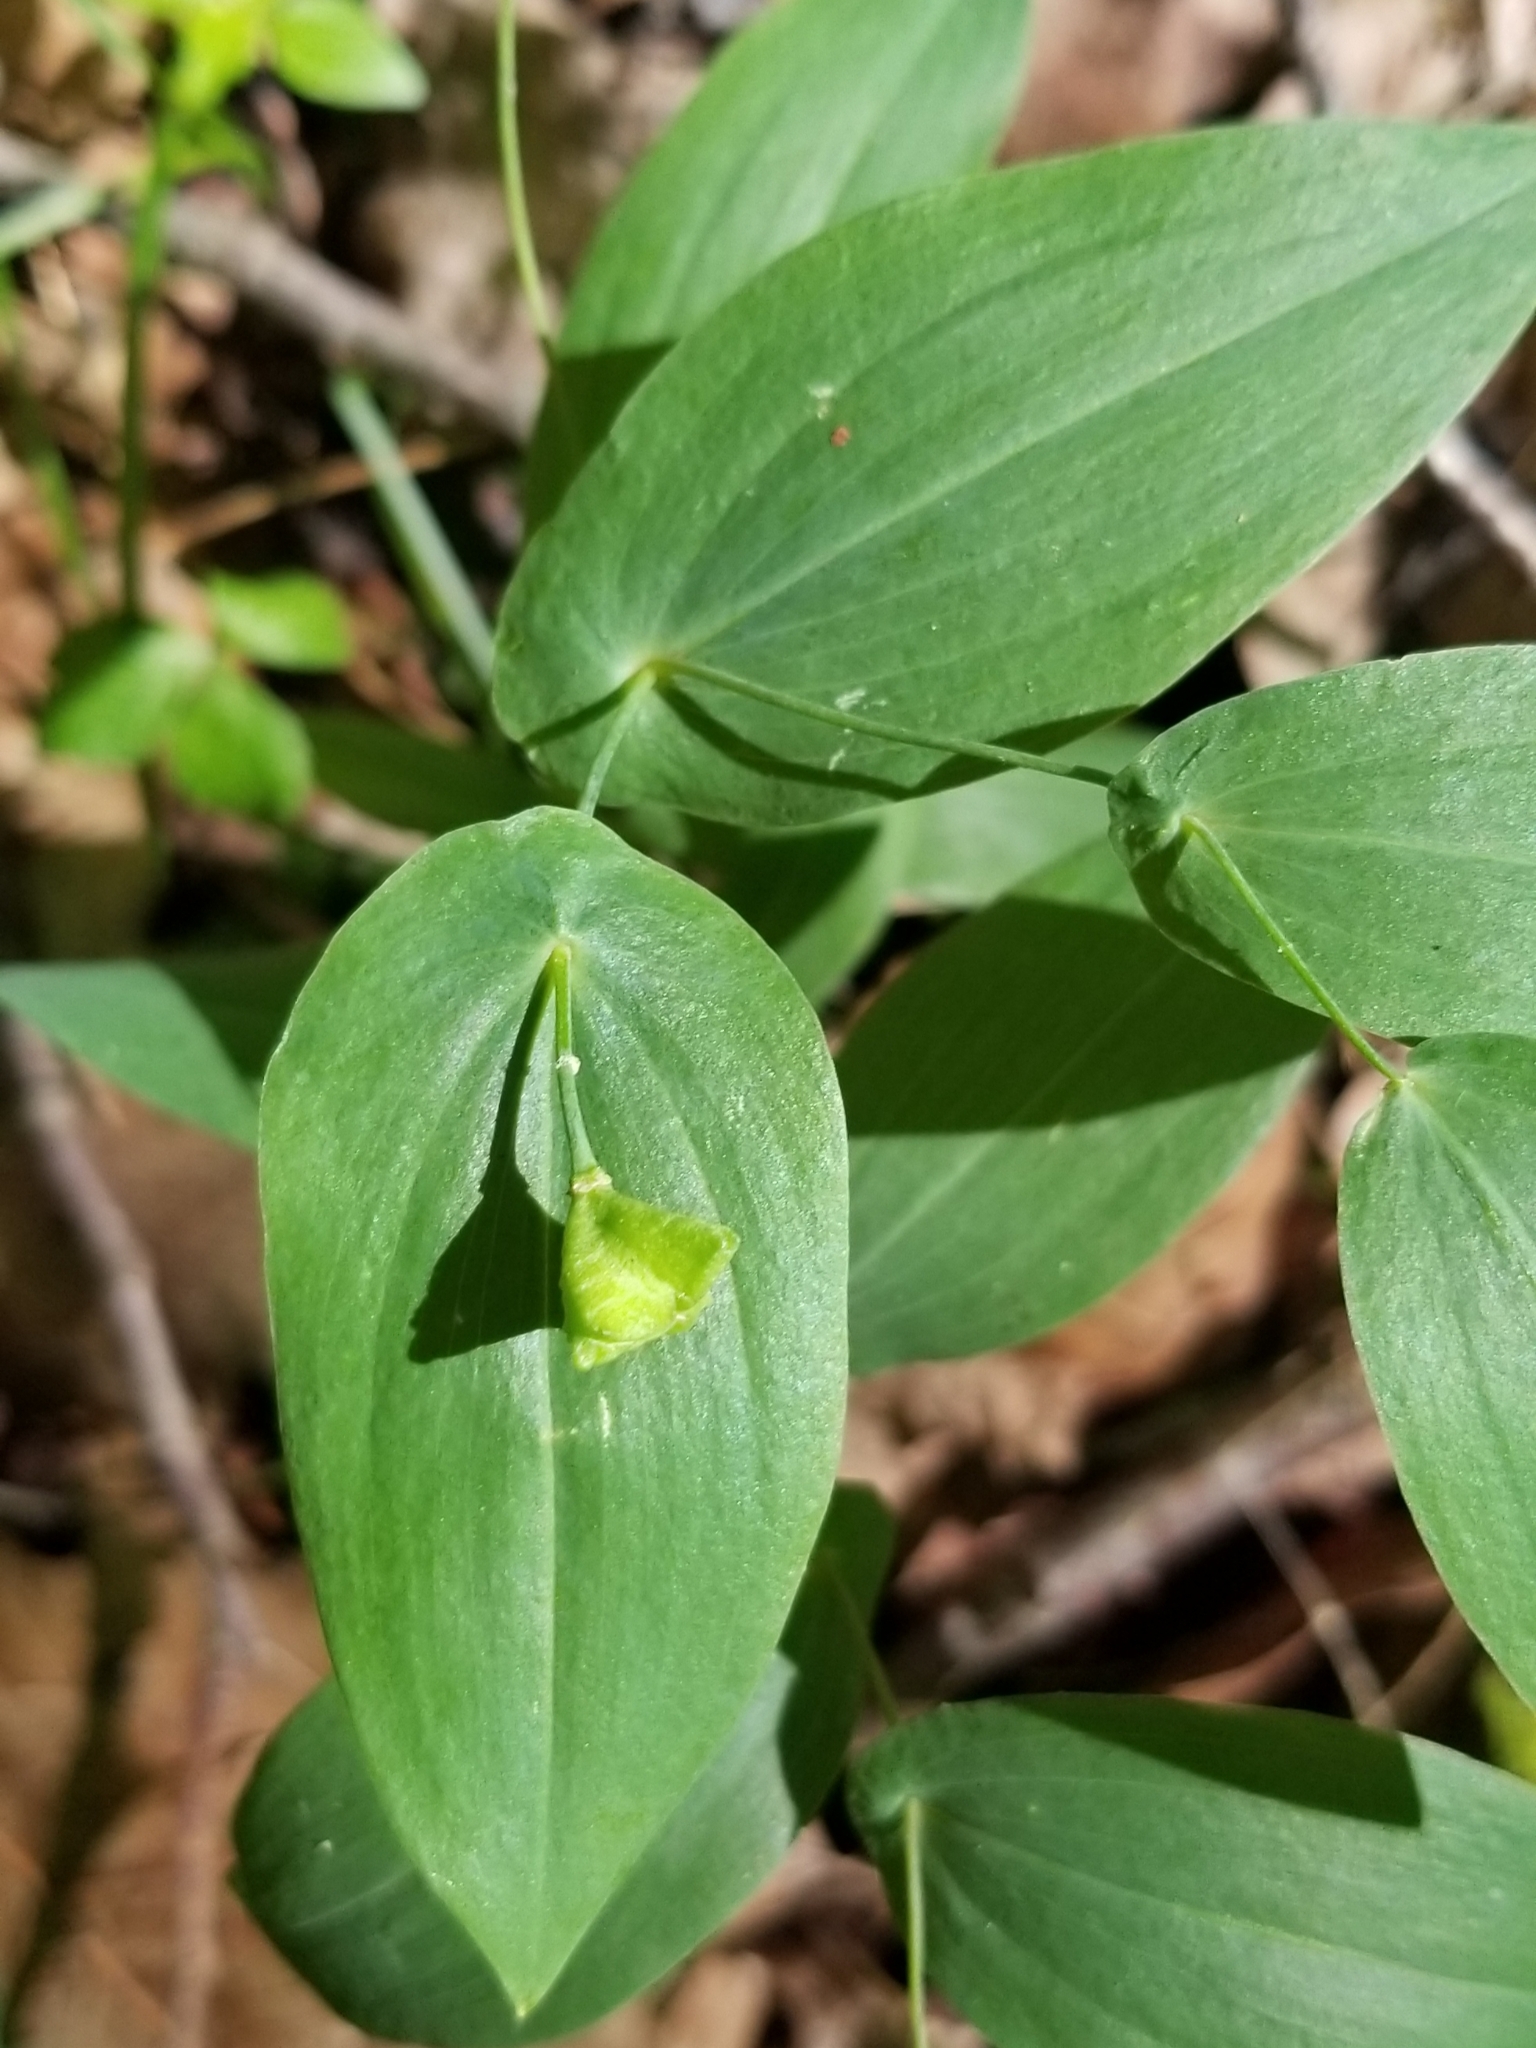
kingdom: Plantae
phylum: Tracheophyta
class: Liliopsida
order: Liliales
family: Colchicaceae
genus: Uvularia
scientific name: Uvularia perfoliata
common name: Perfoliate bellwort
